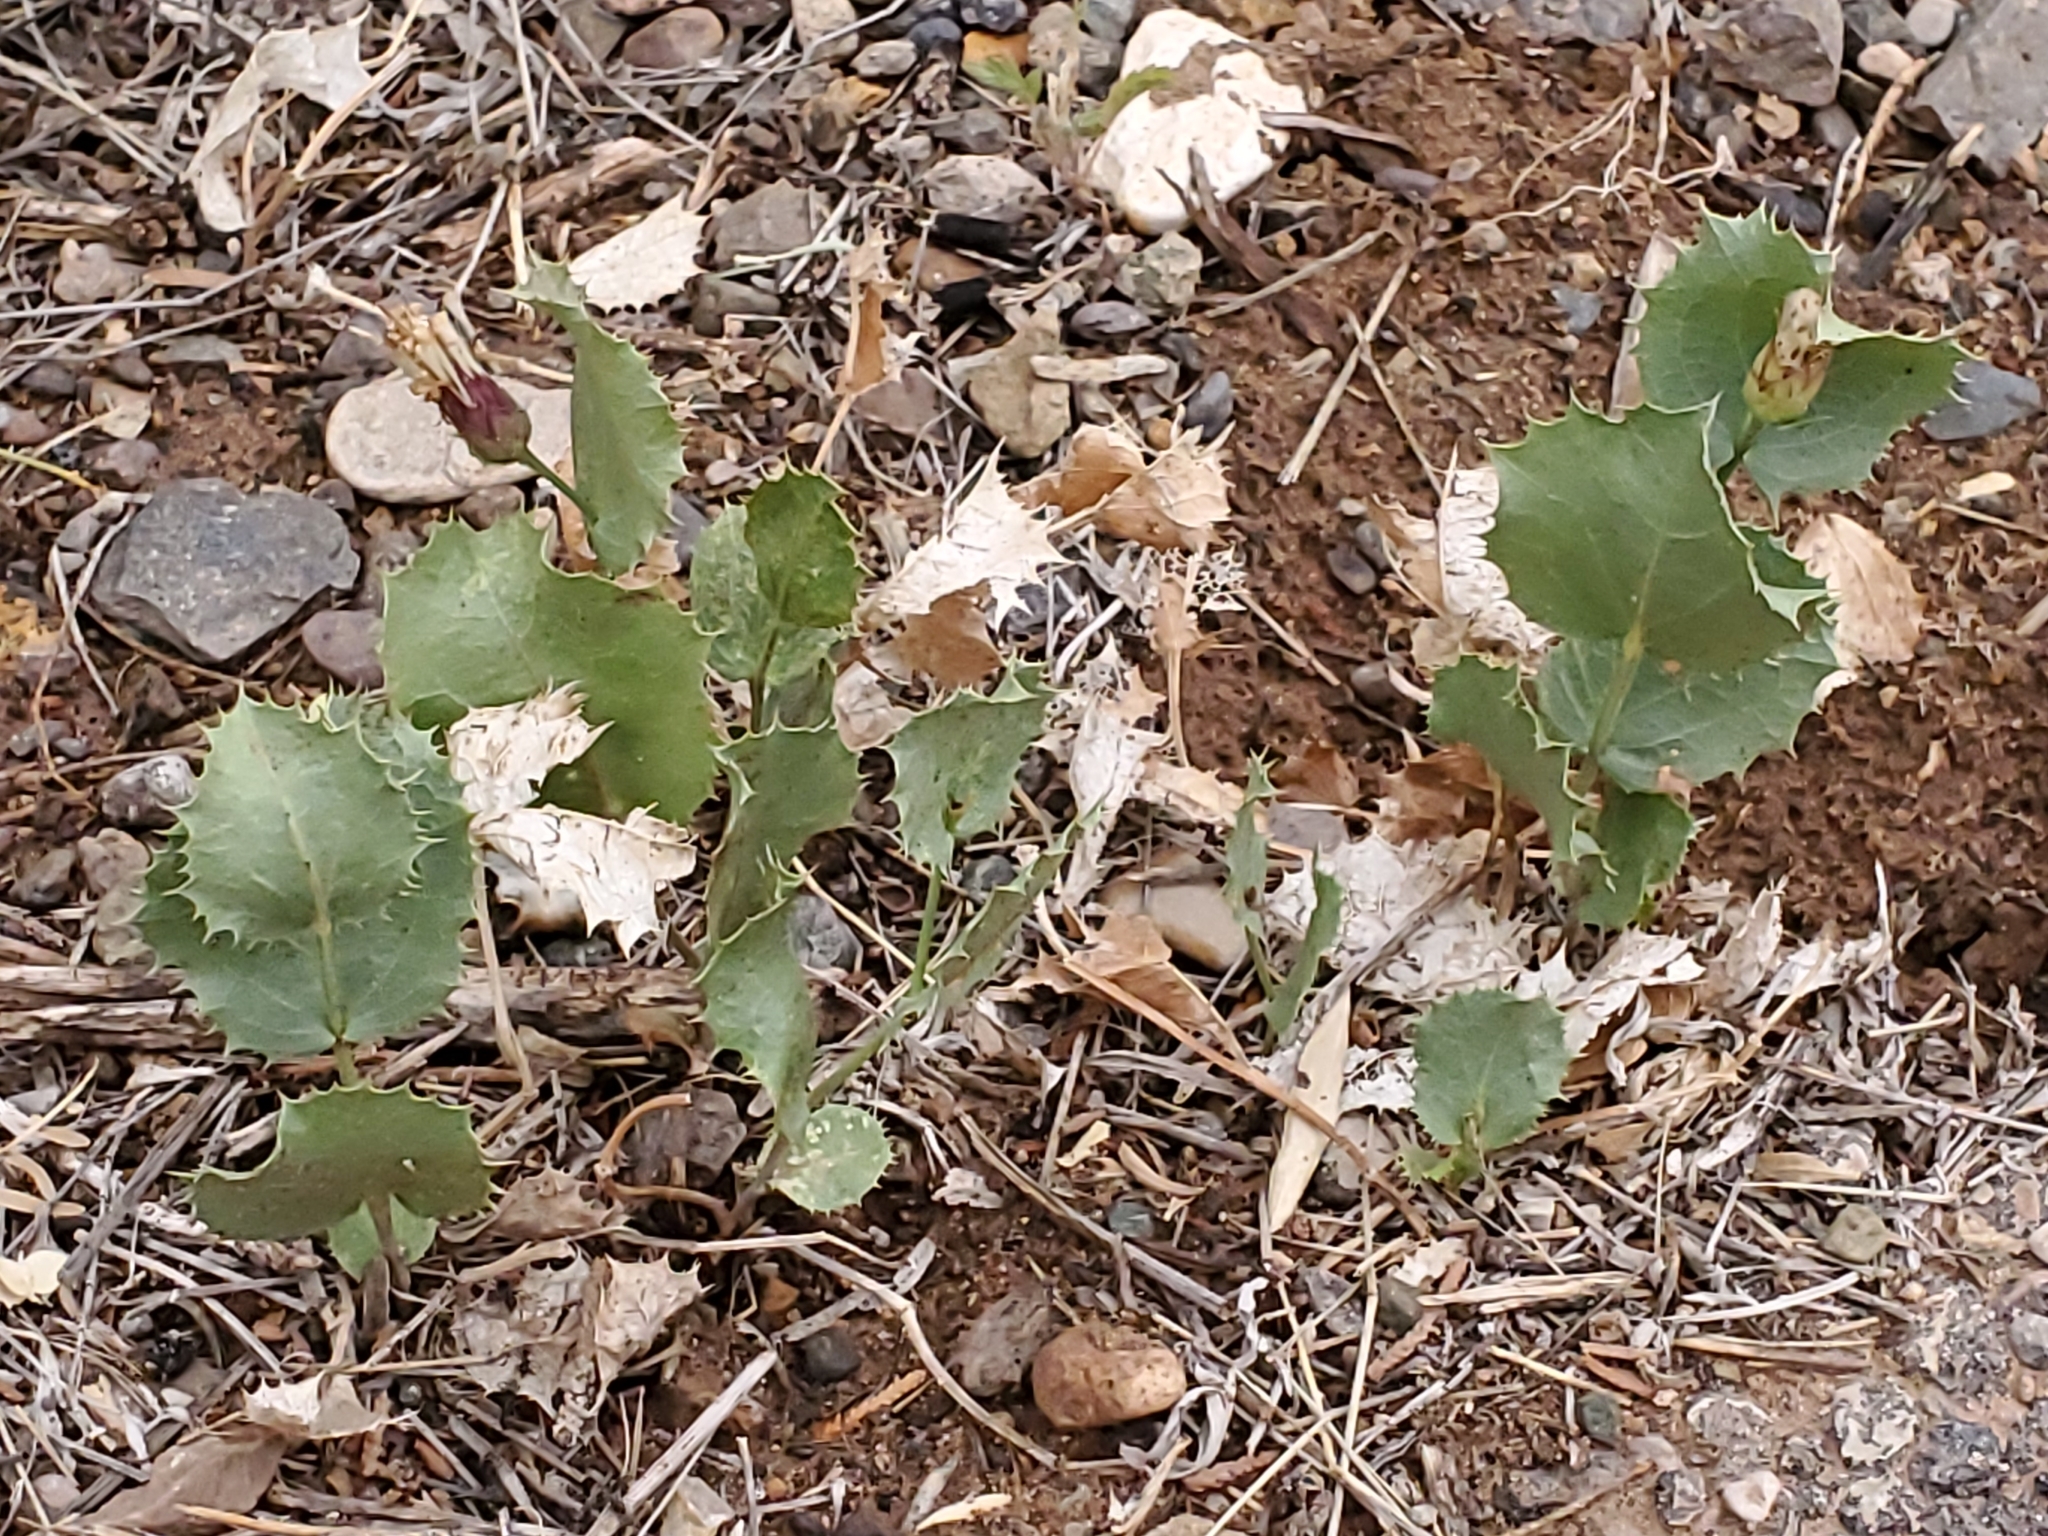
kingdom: Plantae
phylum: Tracheophyta
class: Magnoliopsida
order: Asterales
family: Asteraceae
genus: Acourtia
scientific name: Acourtia nana
